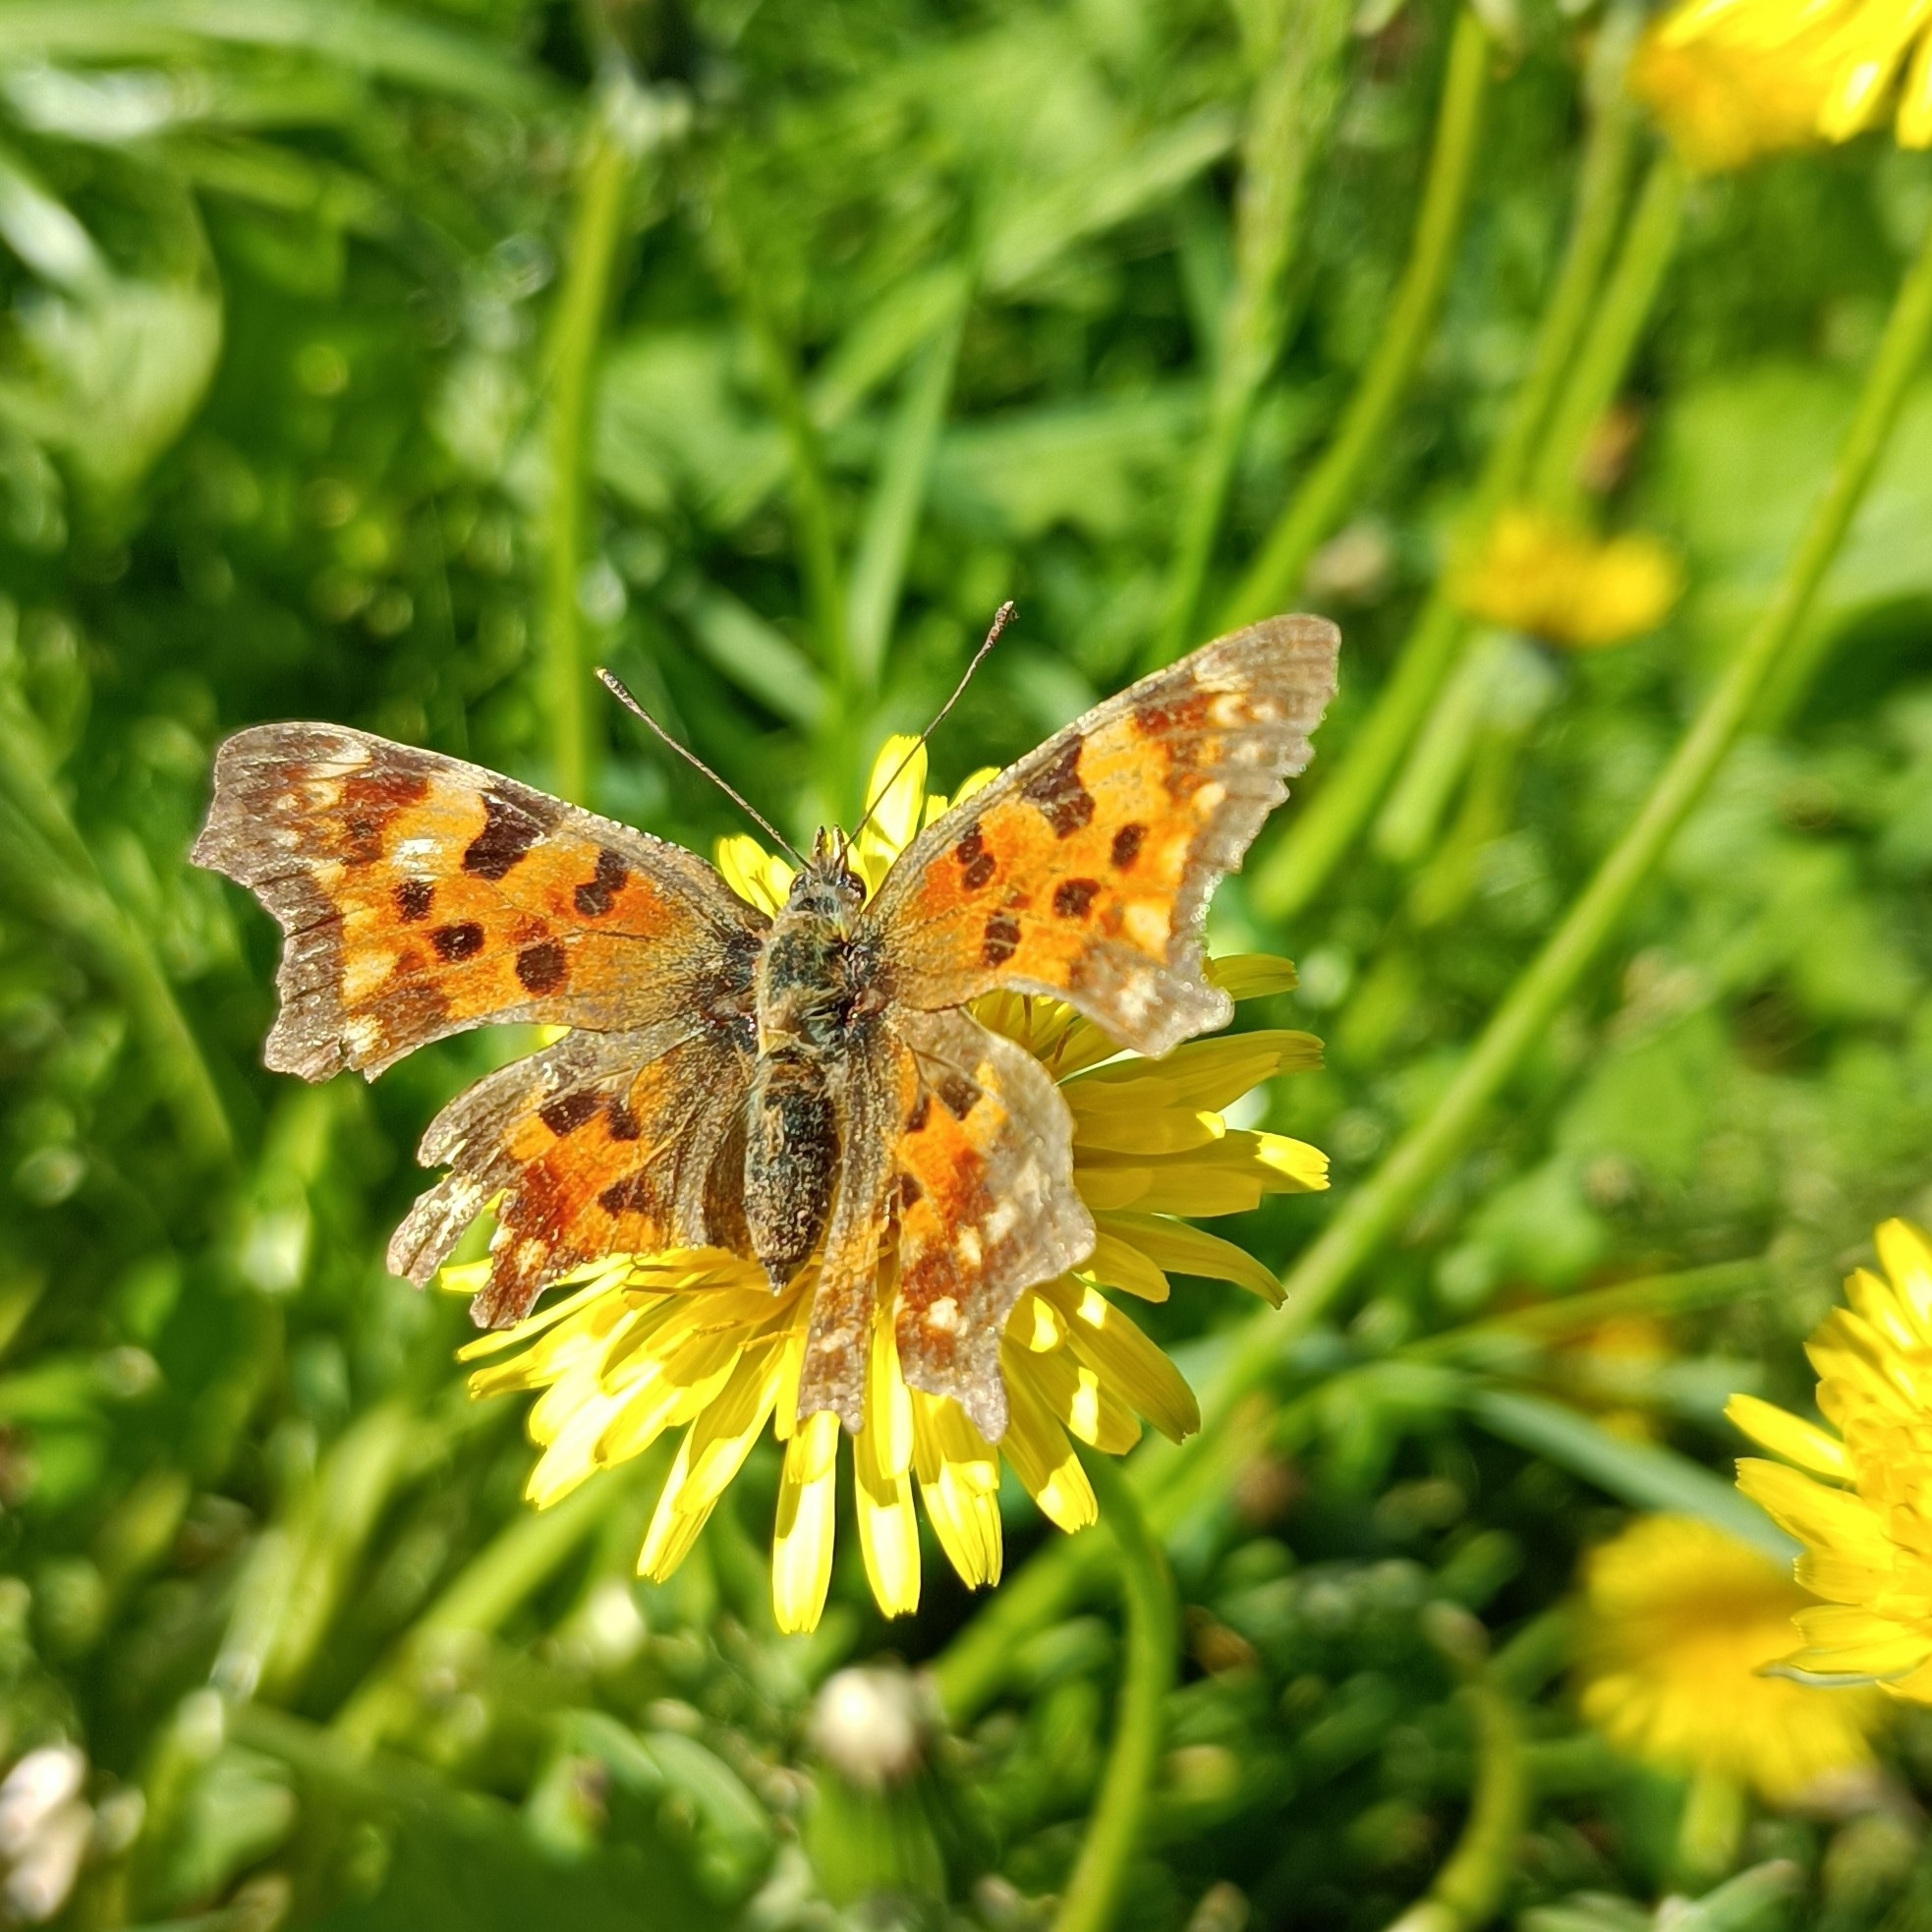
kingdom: Animalia
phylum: Arthropoda
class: Insecta
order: Lepidoptera
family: Nymphalidae
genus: Polygonia
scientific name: Polygonia c-album
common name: Comma
